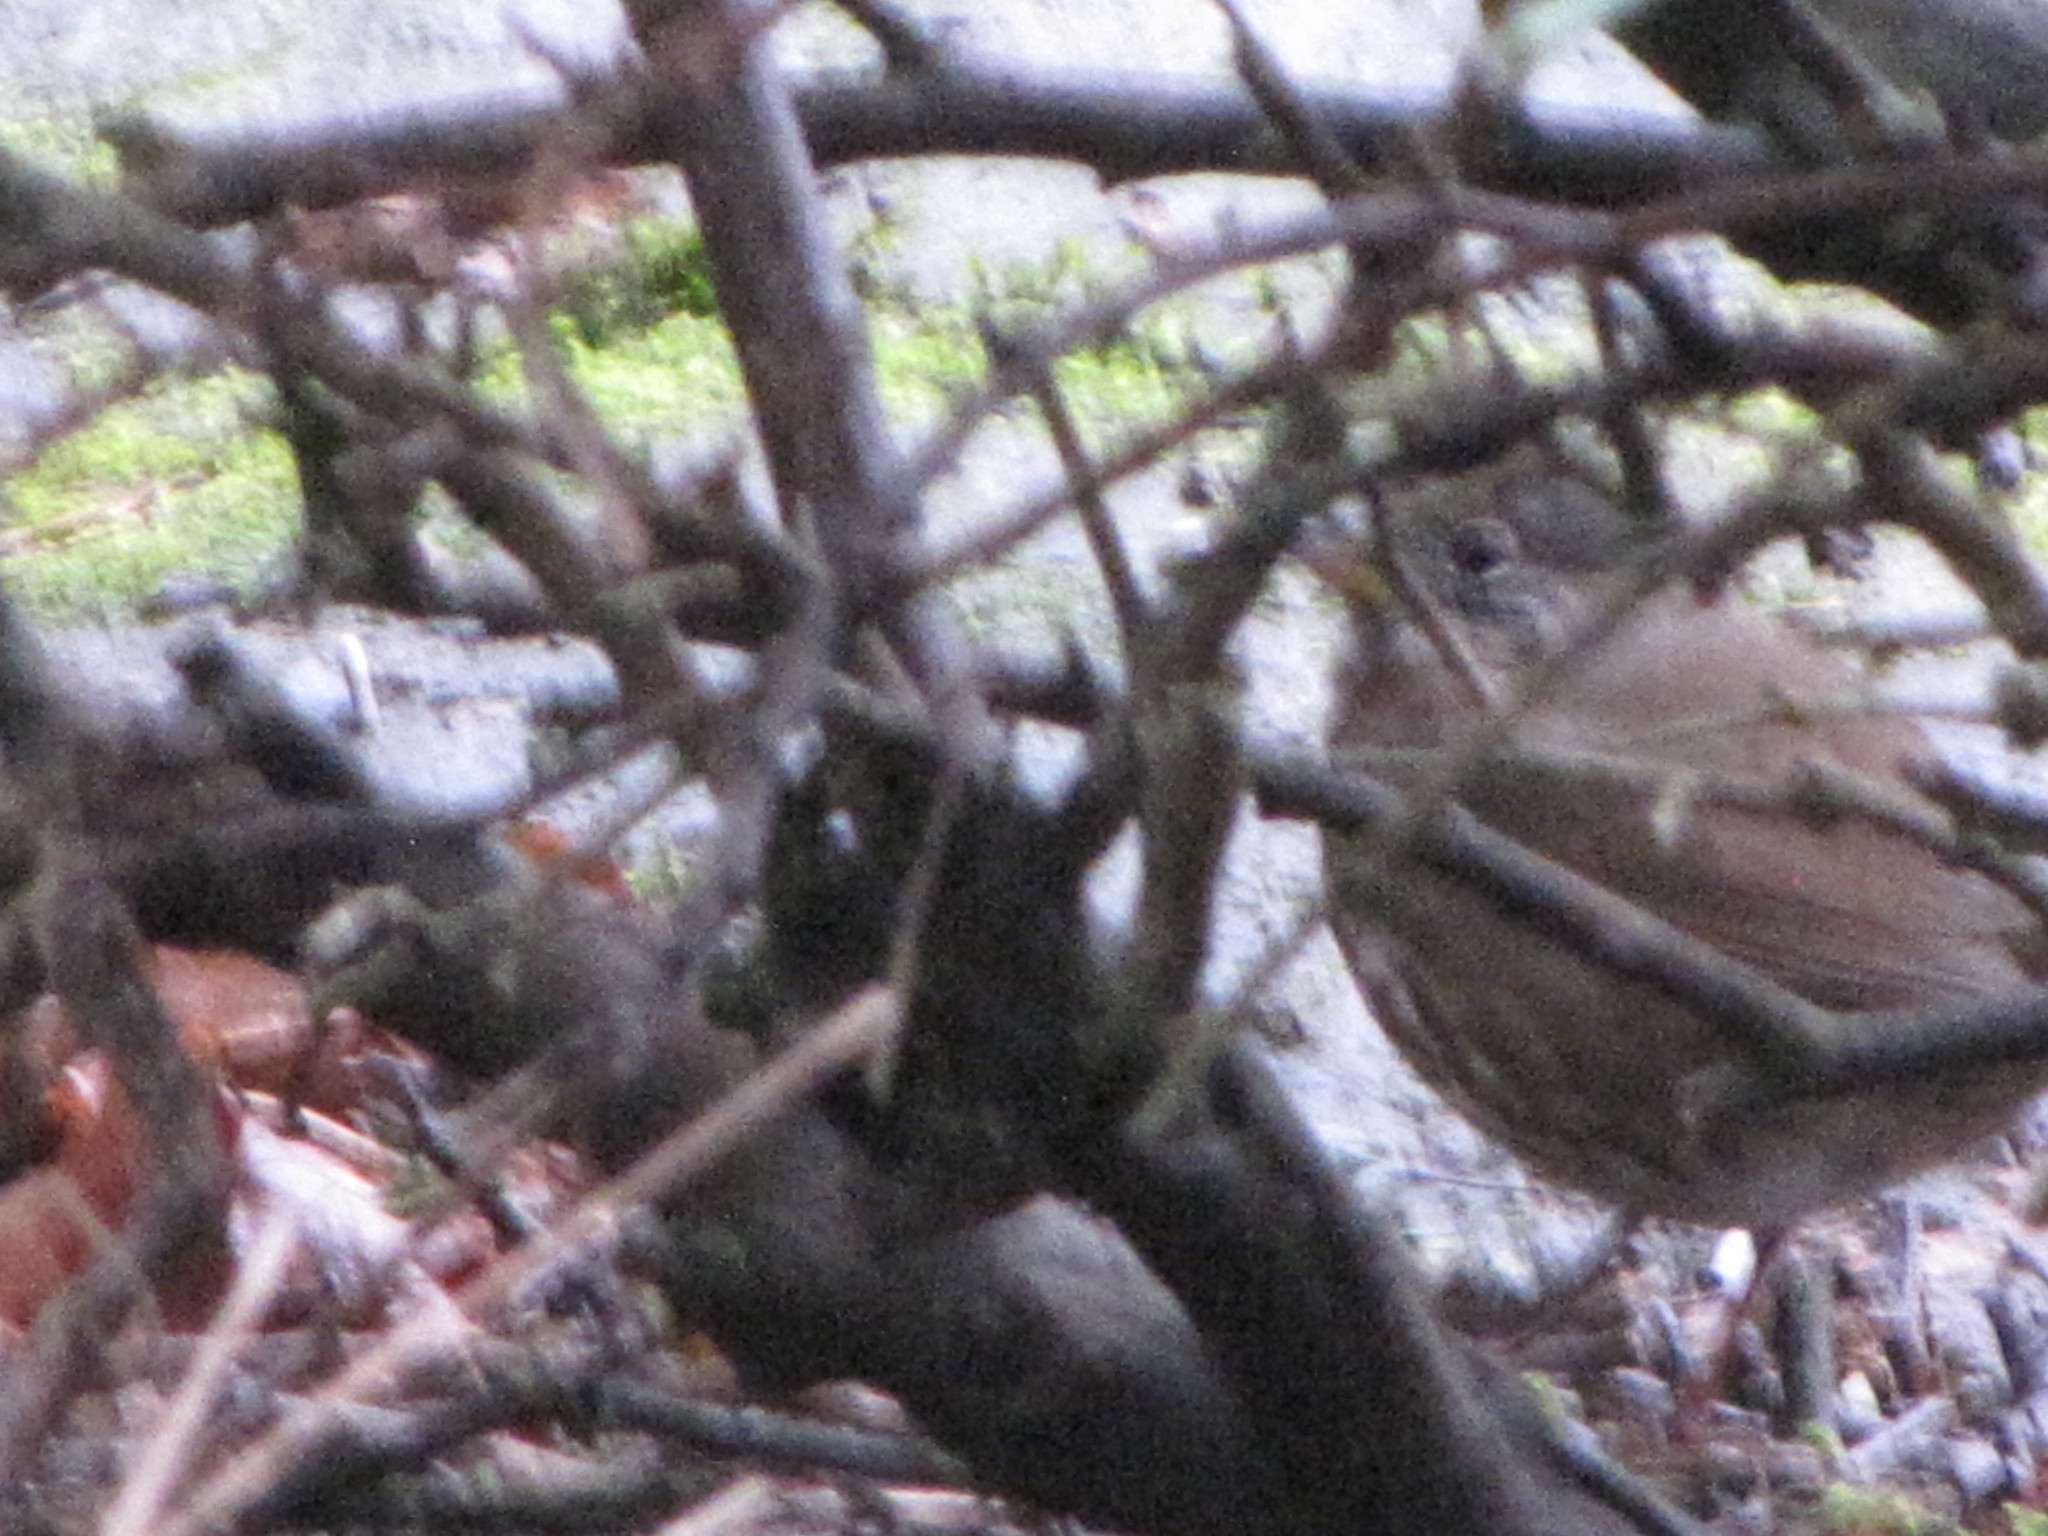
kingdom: Animalia
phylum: Chordata
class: Aves
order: Passeriformes
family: Passerellidae
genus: Passerella
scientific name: Passerella iliaca
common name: Fox sparrow
